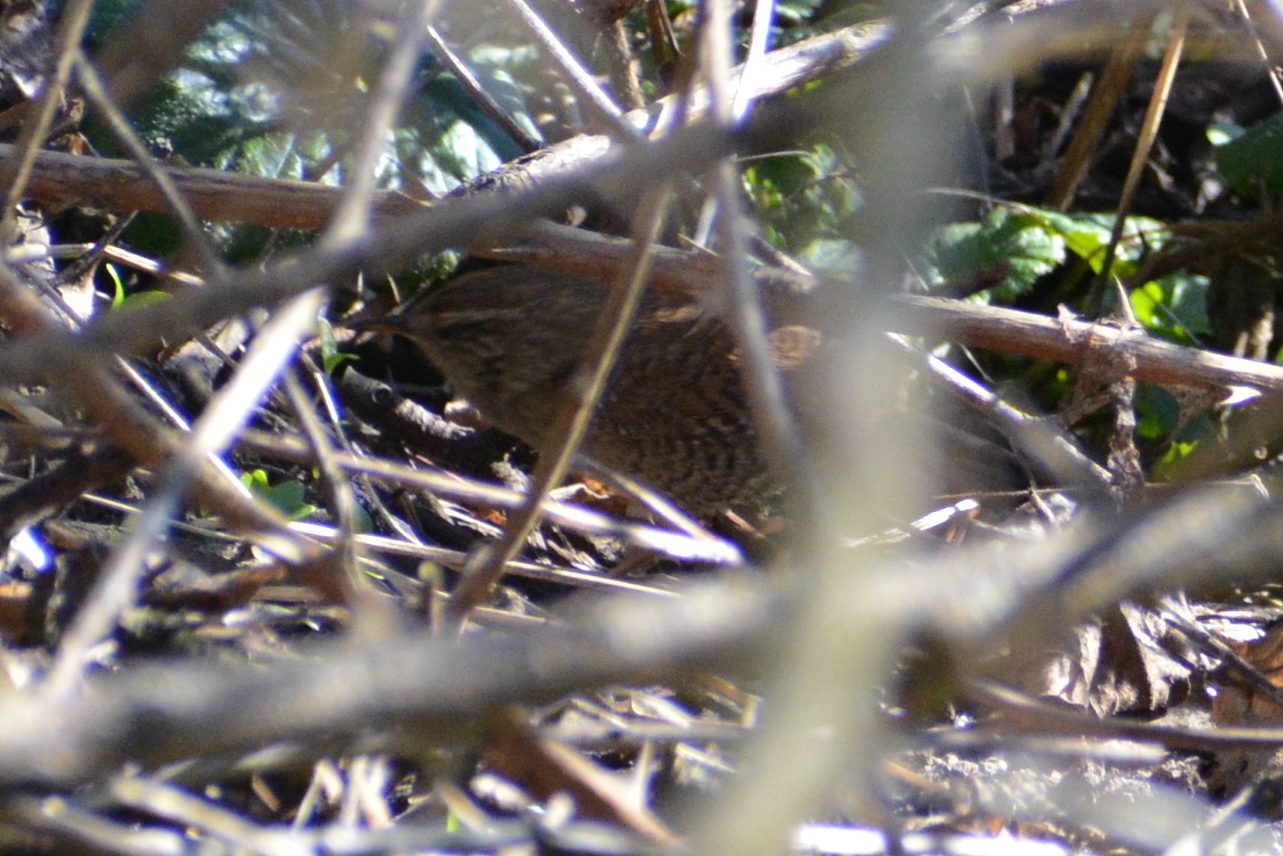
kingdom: Animalia
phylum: Chordata
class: Aves
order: Passeriformes
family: Troglodytidae
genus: Troglodytes
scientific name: Troglodytes troglodytes
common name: Eurasian wren
